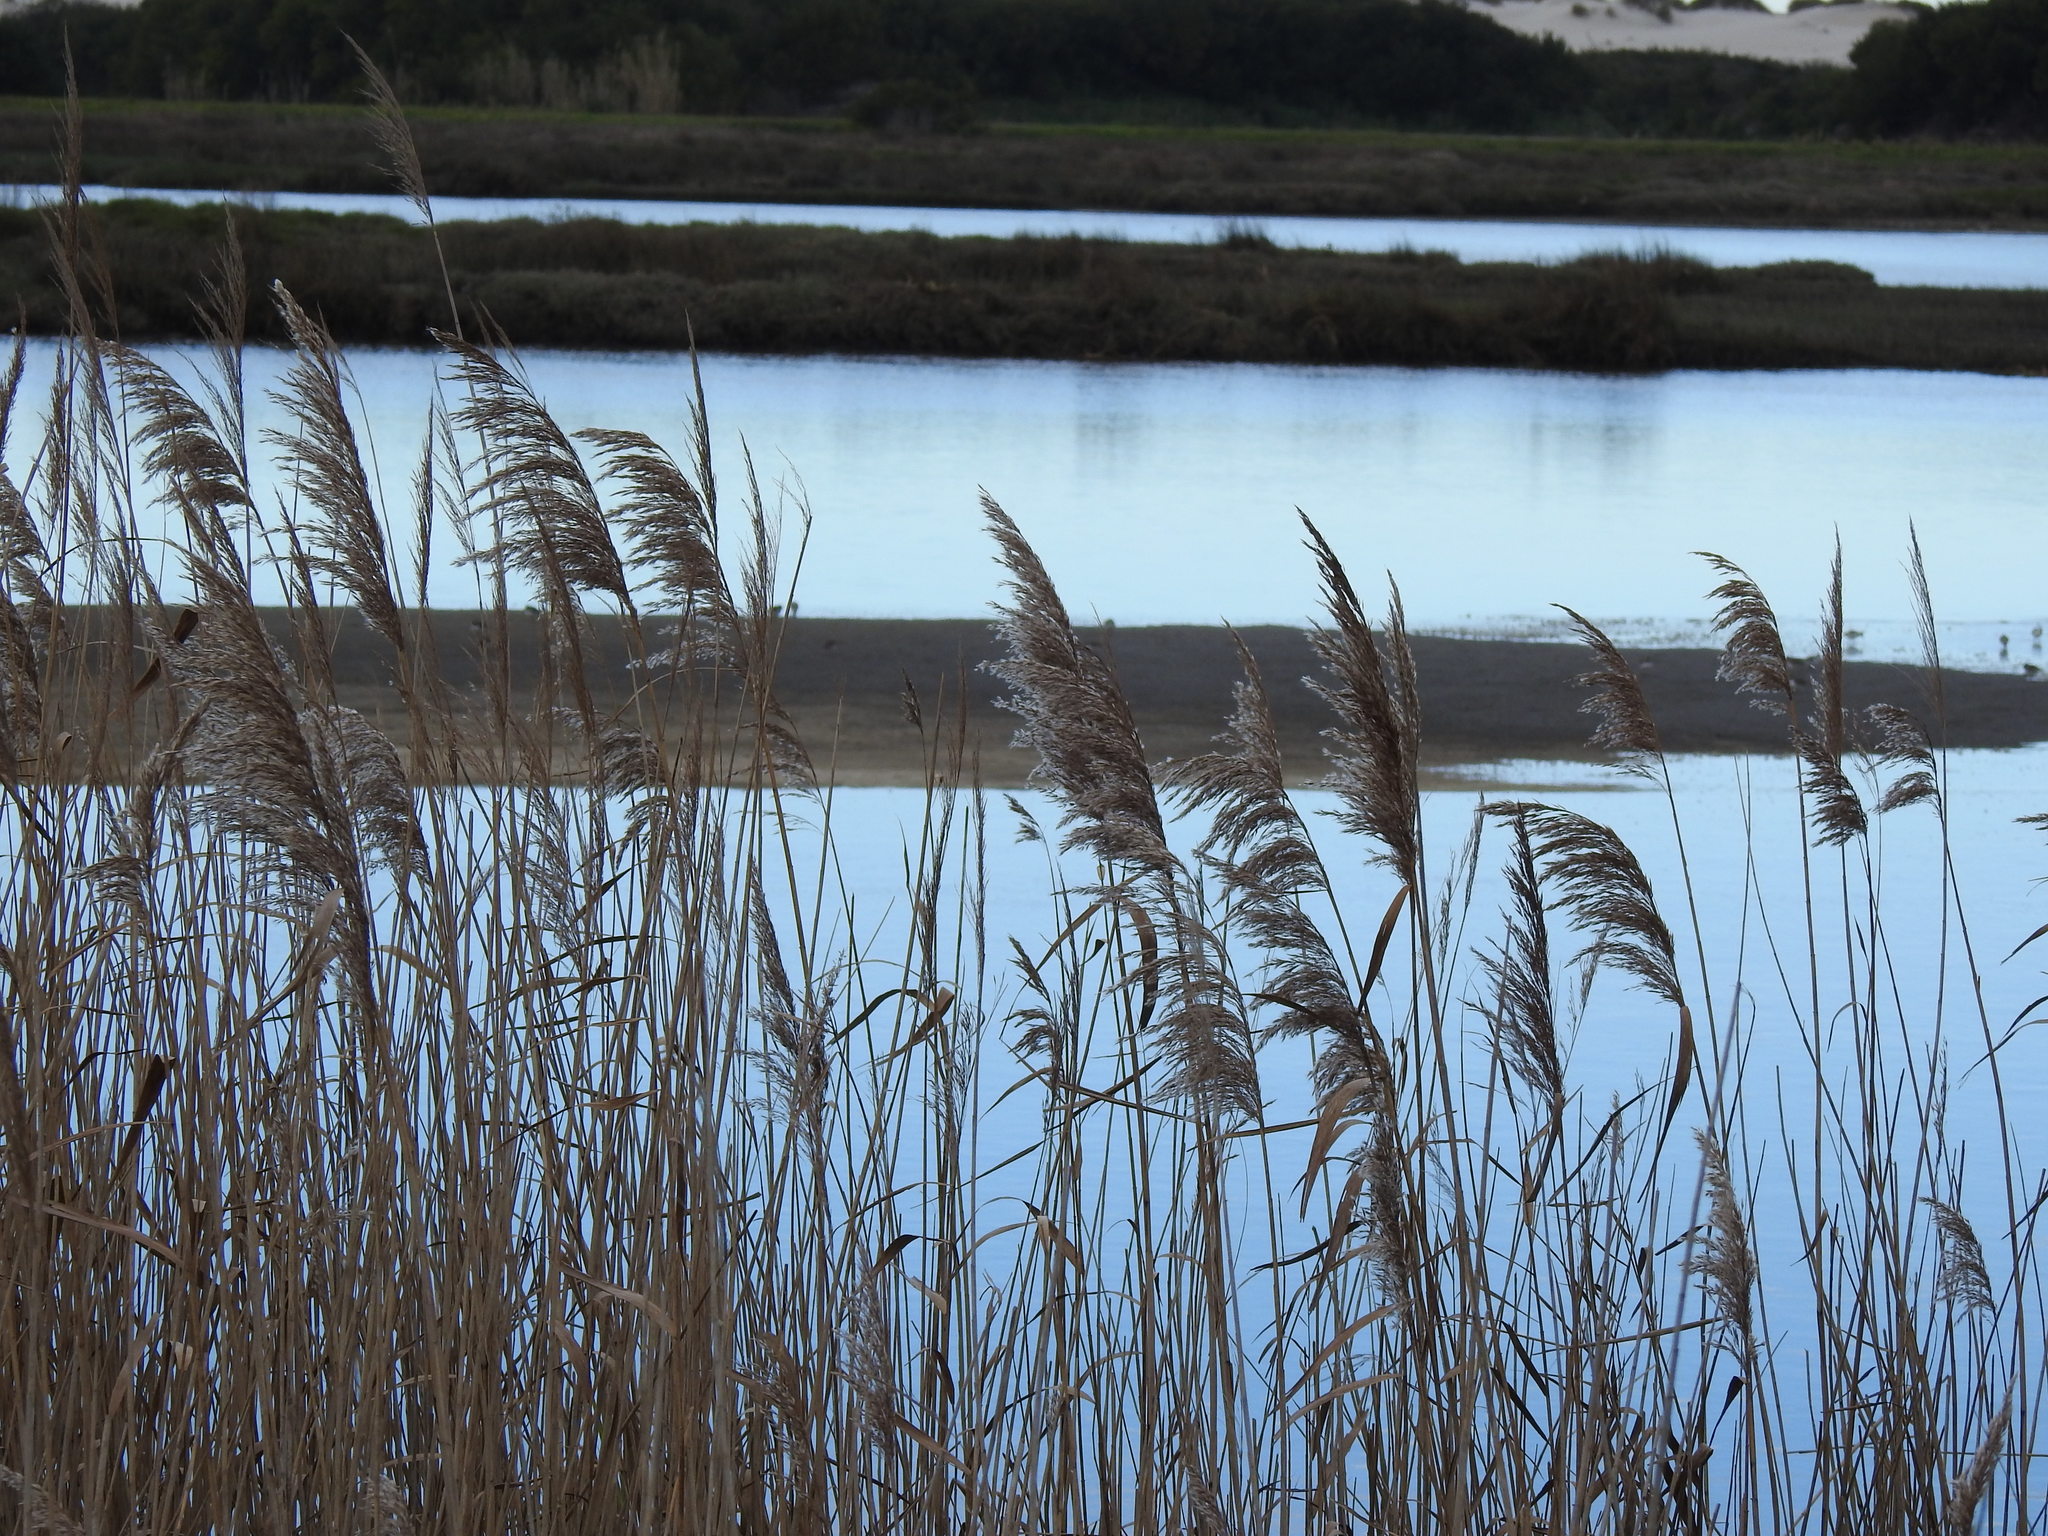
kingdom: Plantae
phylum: Tracheophyta
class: Liliopsida
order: Poales
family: Poaceae
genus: Phragmites
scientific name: Phragmites australis
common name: Common reed
